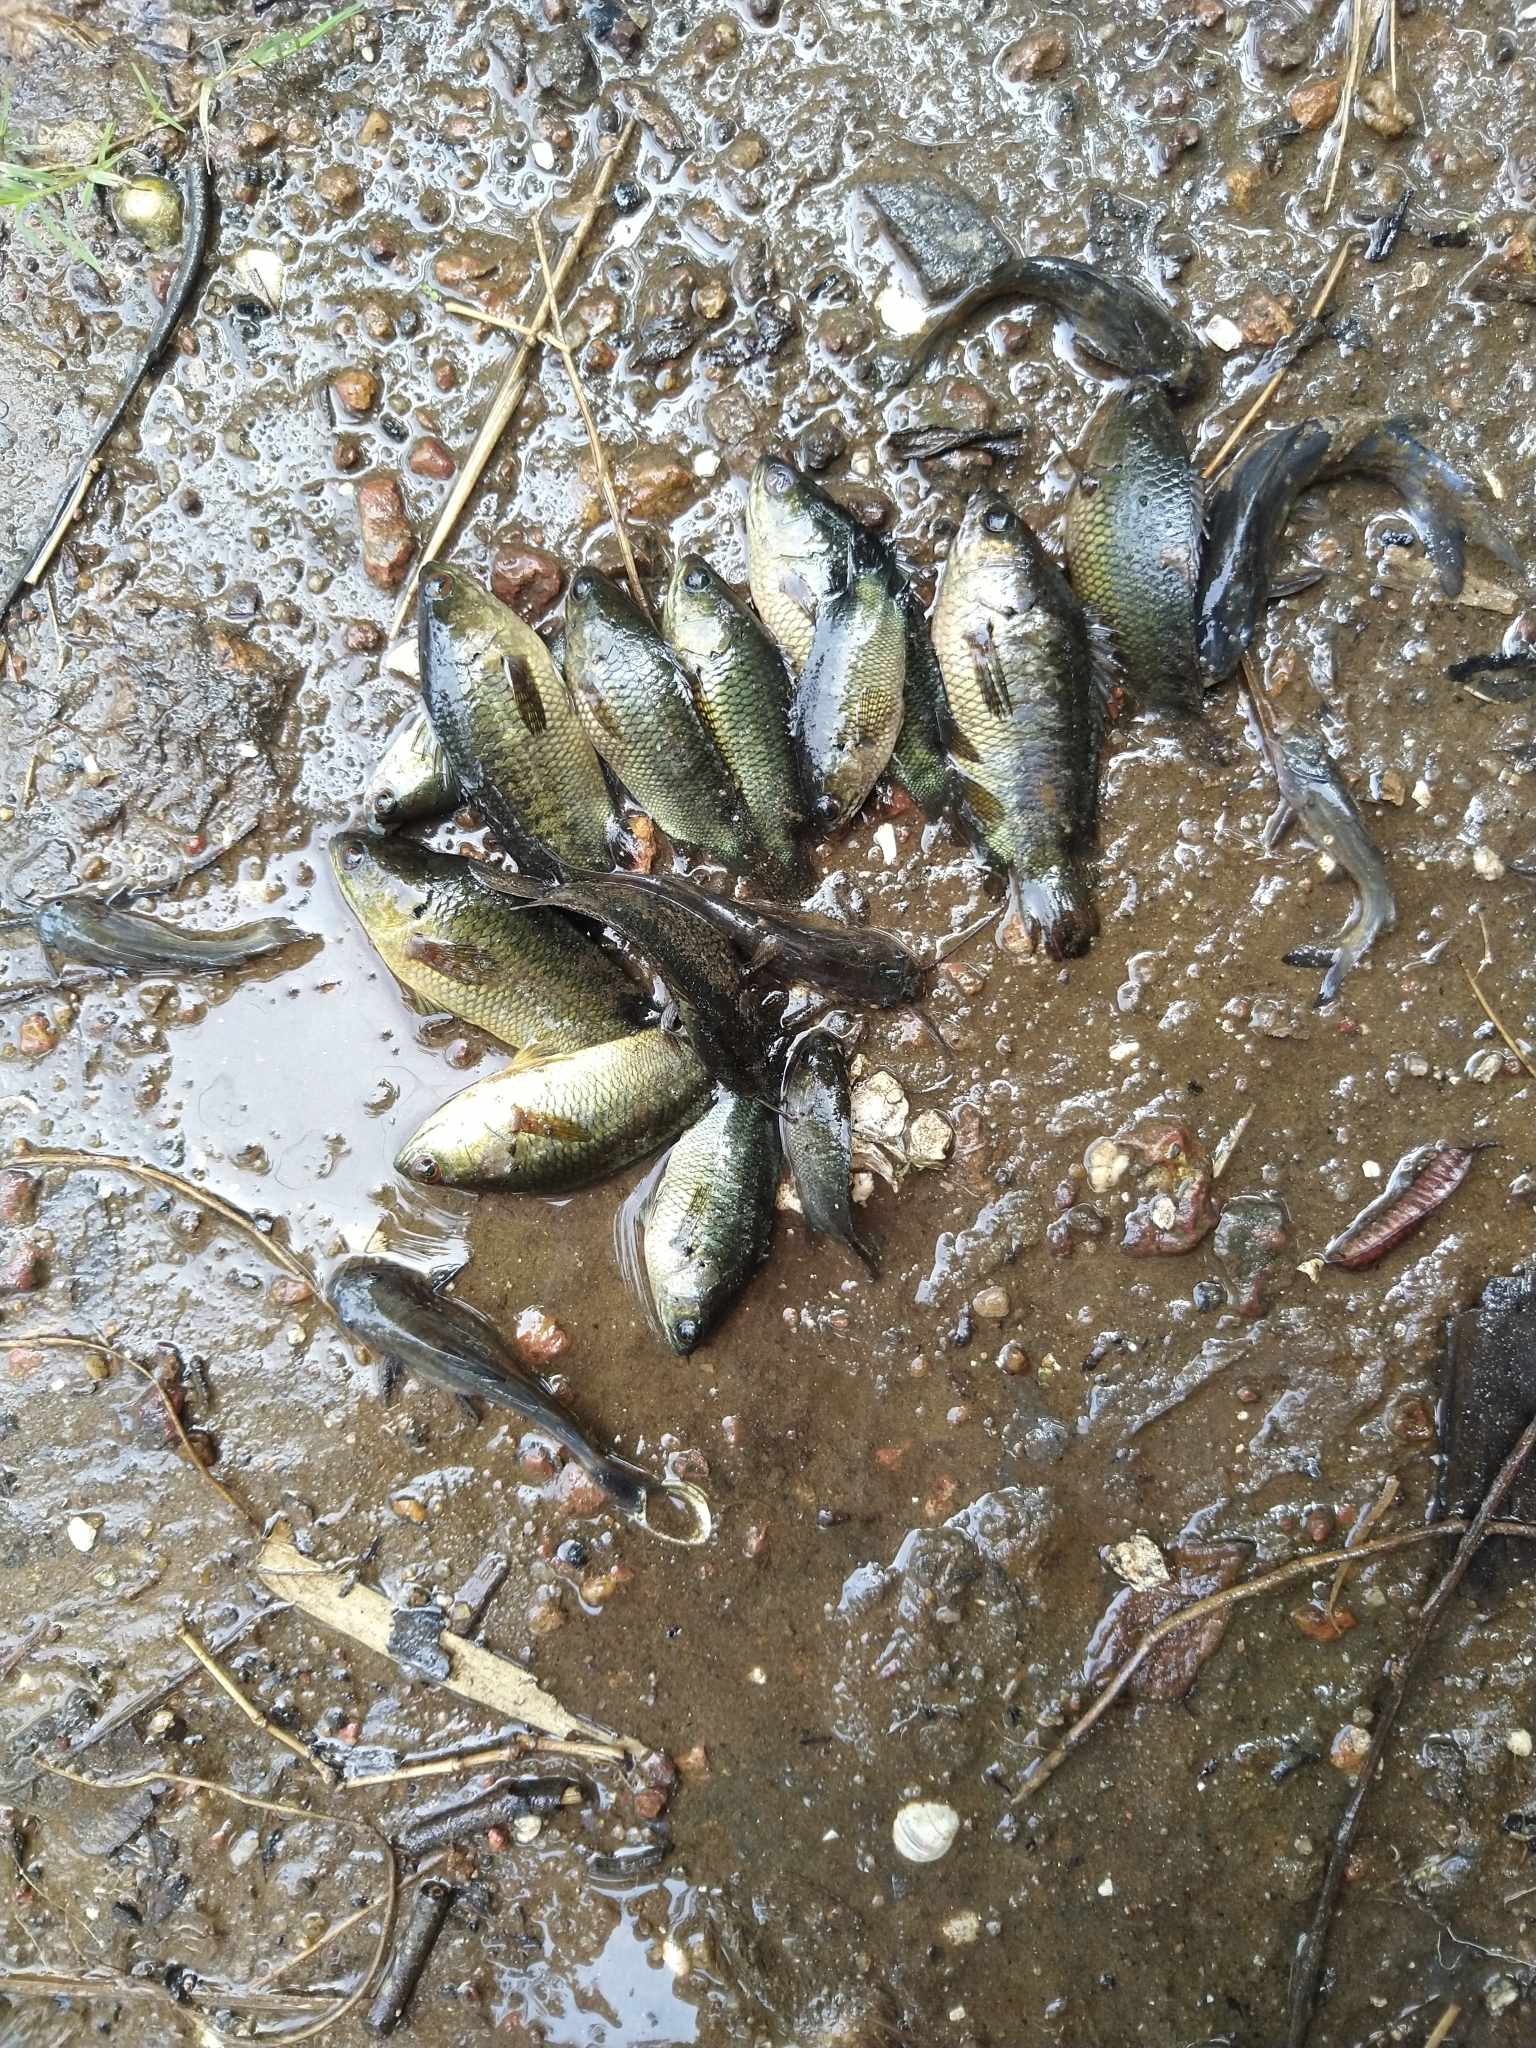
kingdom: Animalia
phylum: Chordata
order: Perciformes
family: Anabantidae
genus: Anabas
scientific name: Anabas testudineus
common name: Climbing perch
